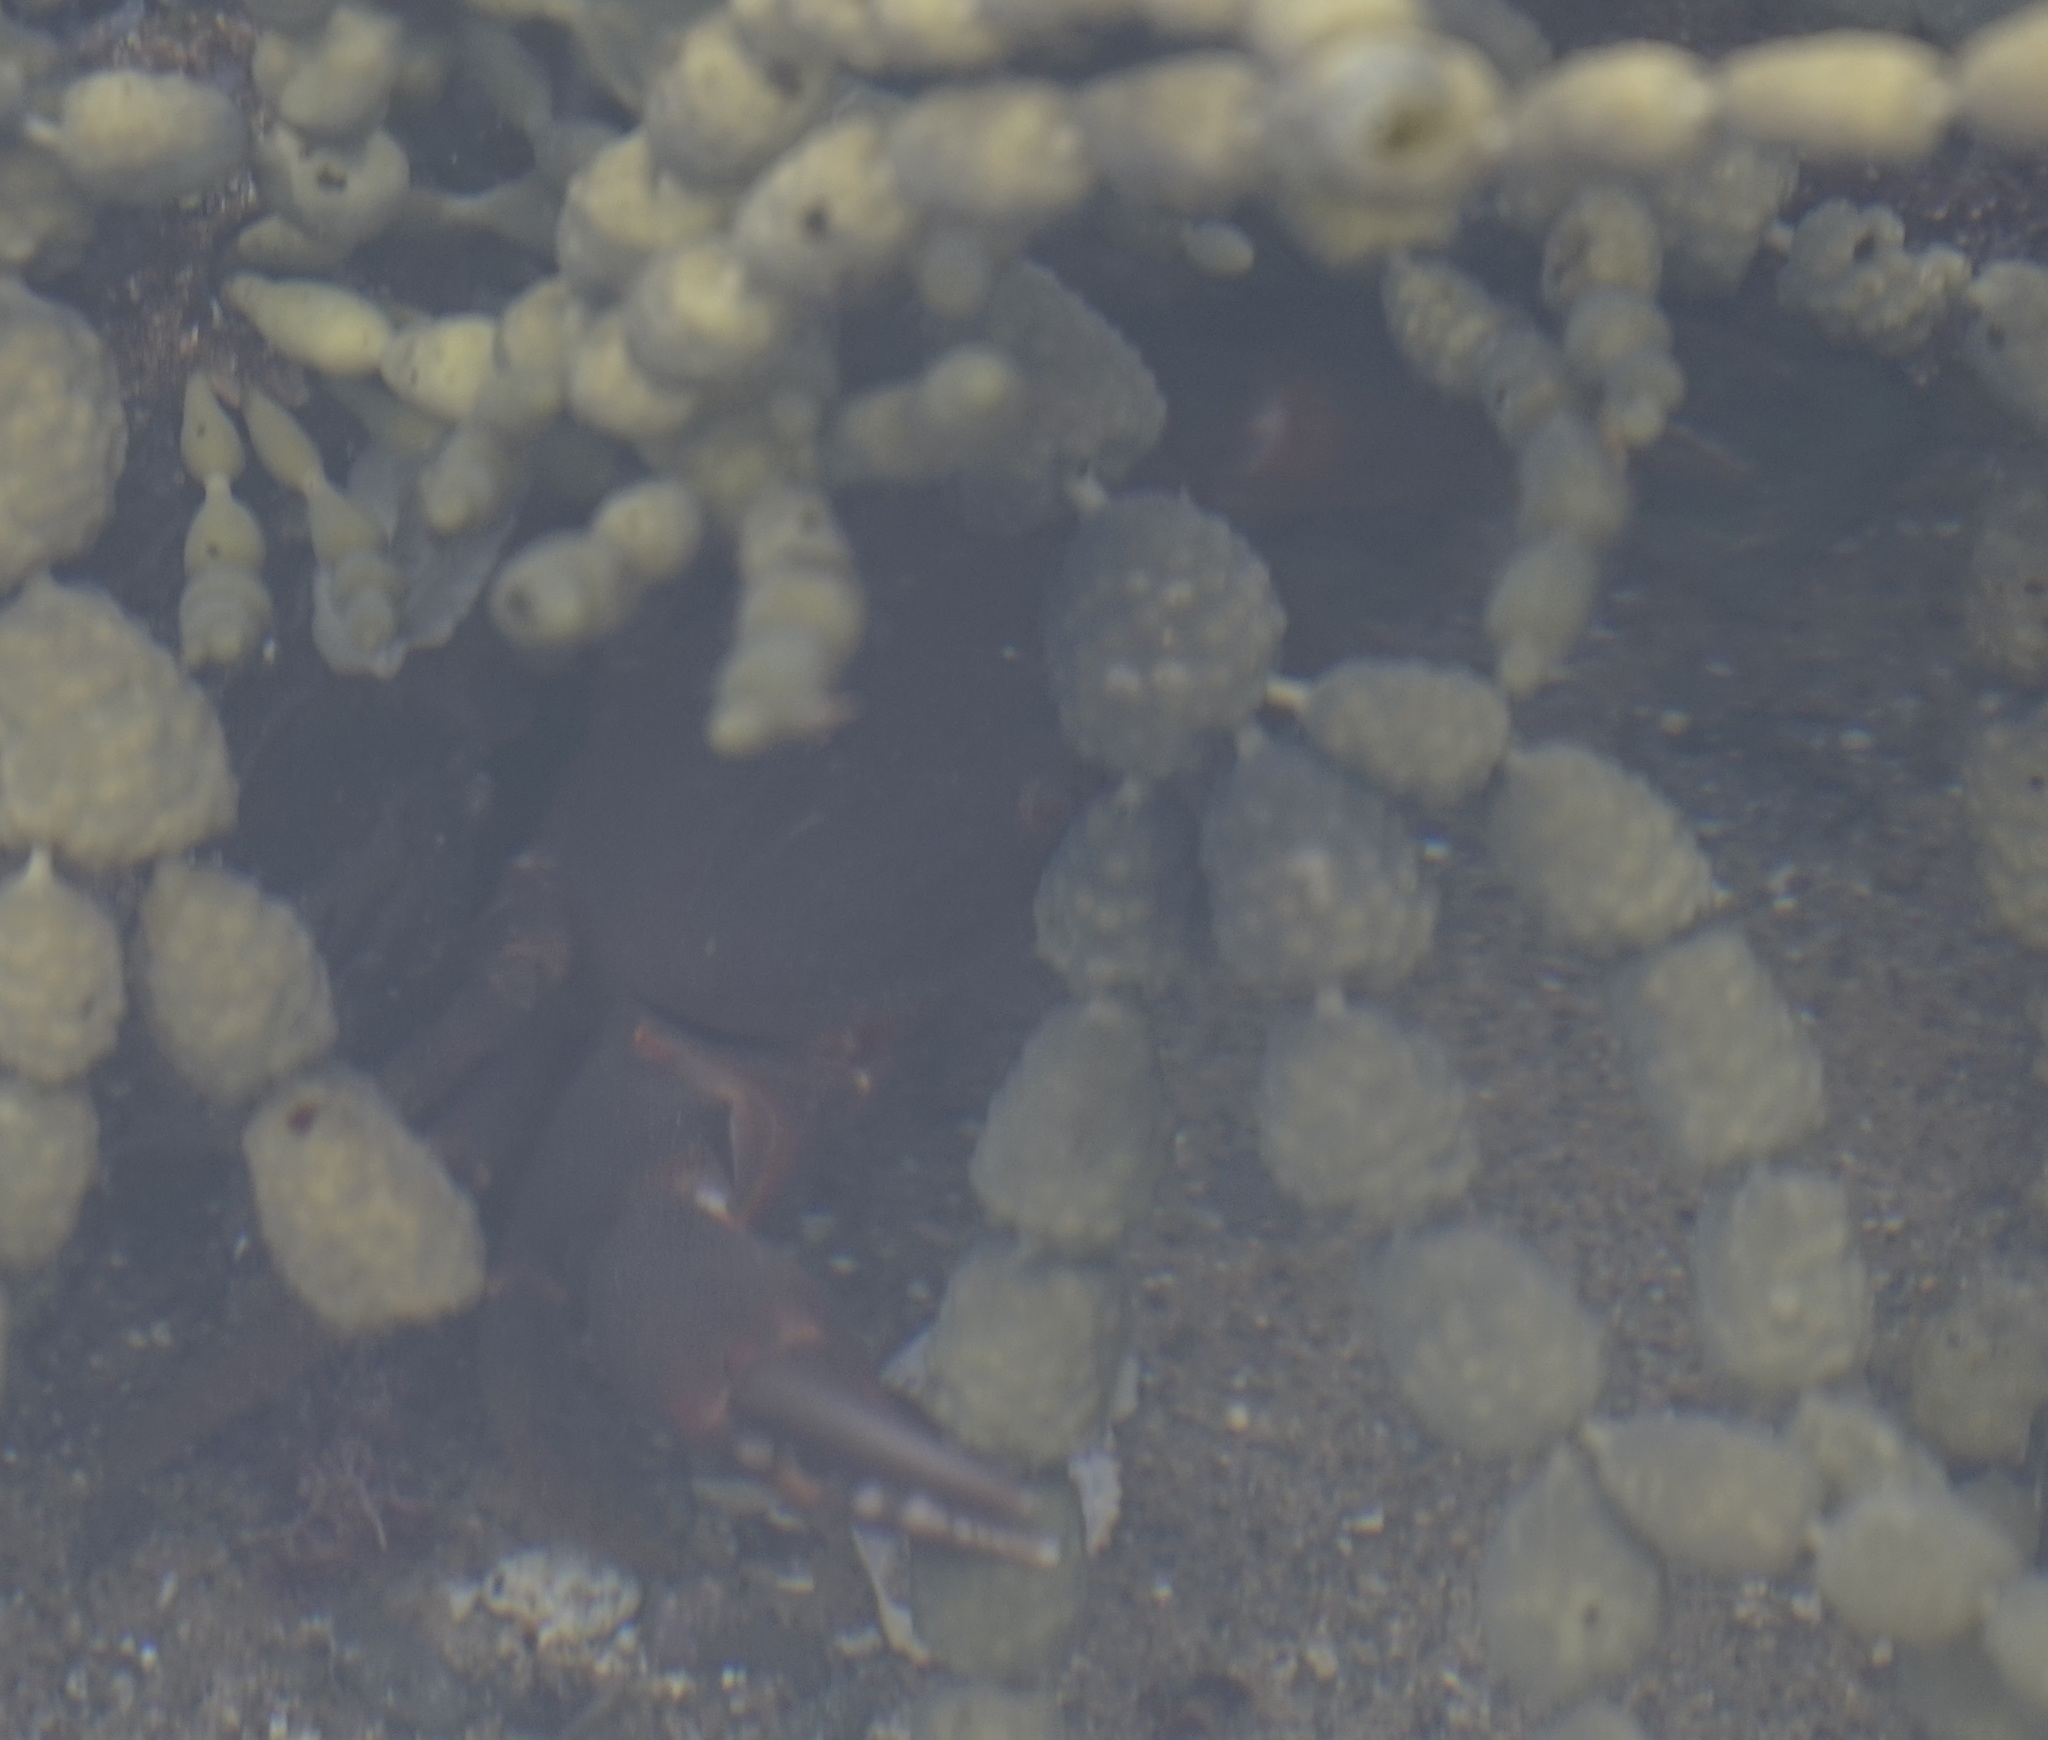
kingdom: Animalia
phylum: Arthropoda
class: Malacostraca
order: Decapoda
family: Oziidae
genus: Ozius
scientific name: Ozius truncatus
